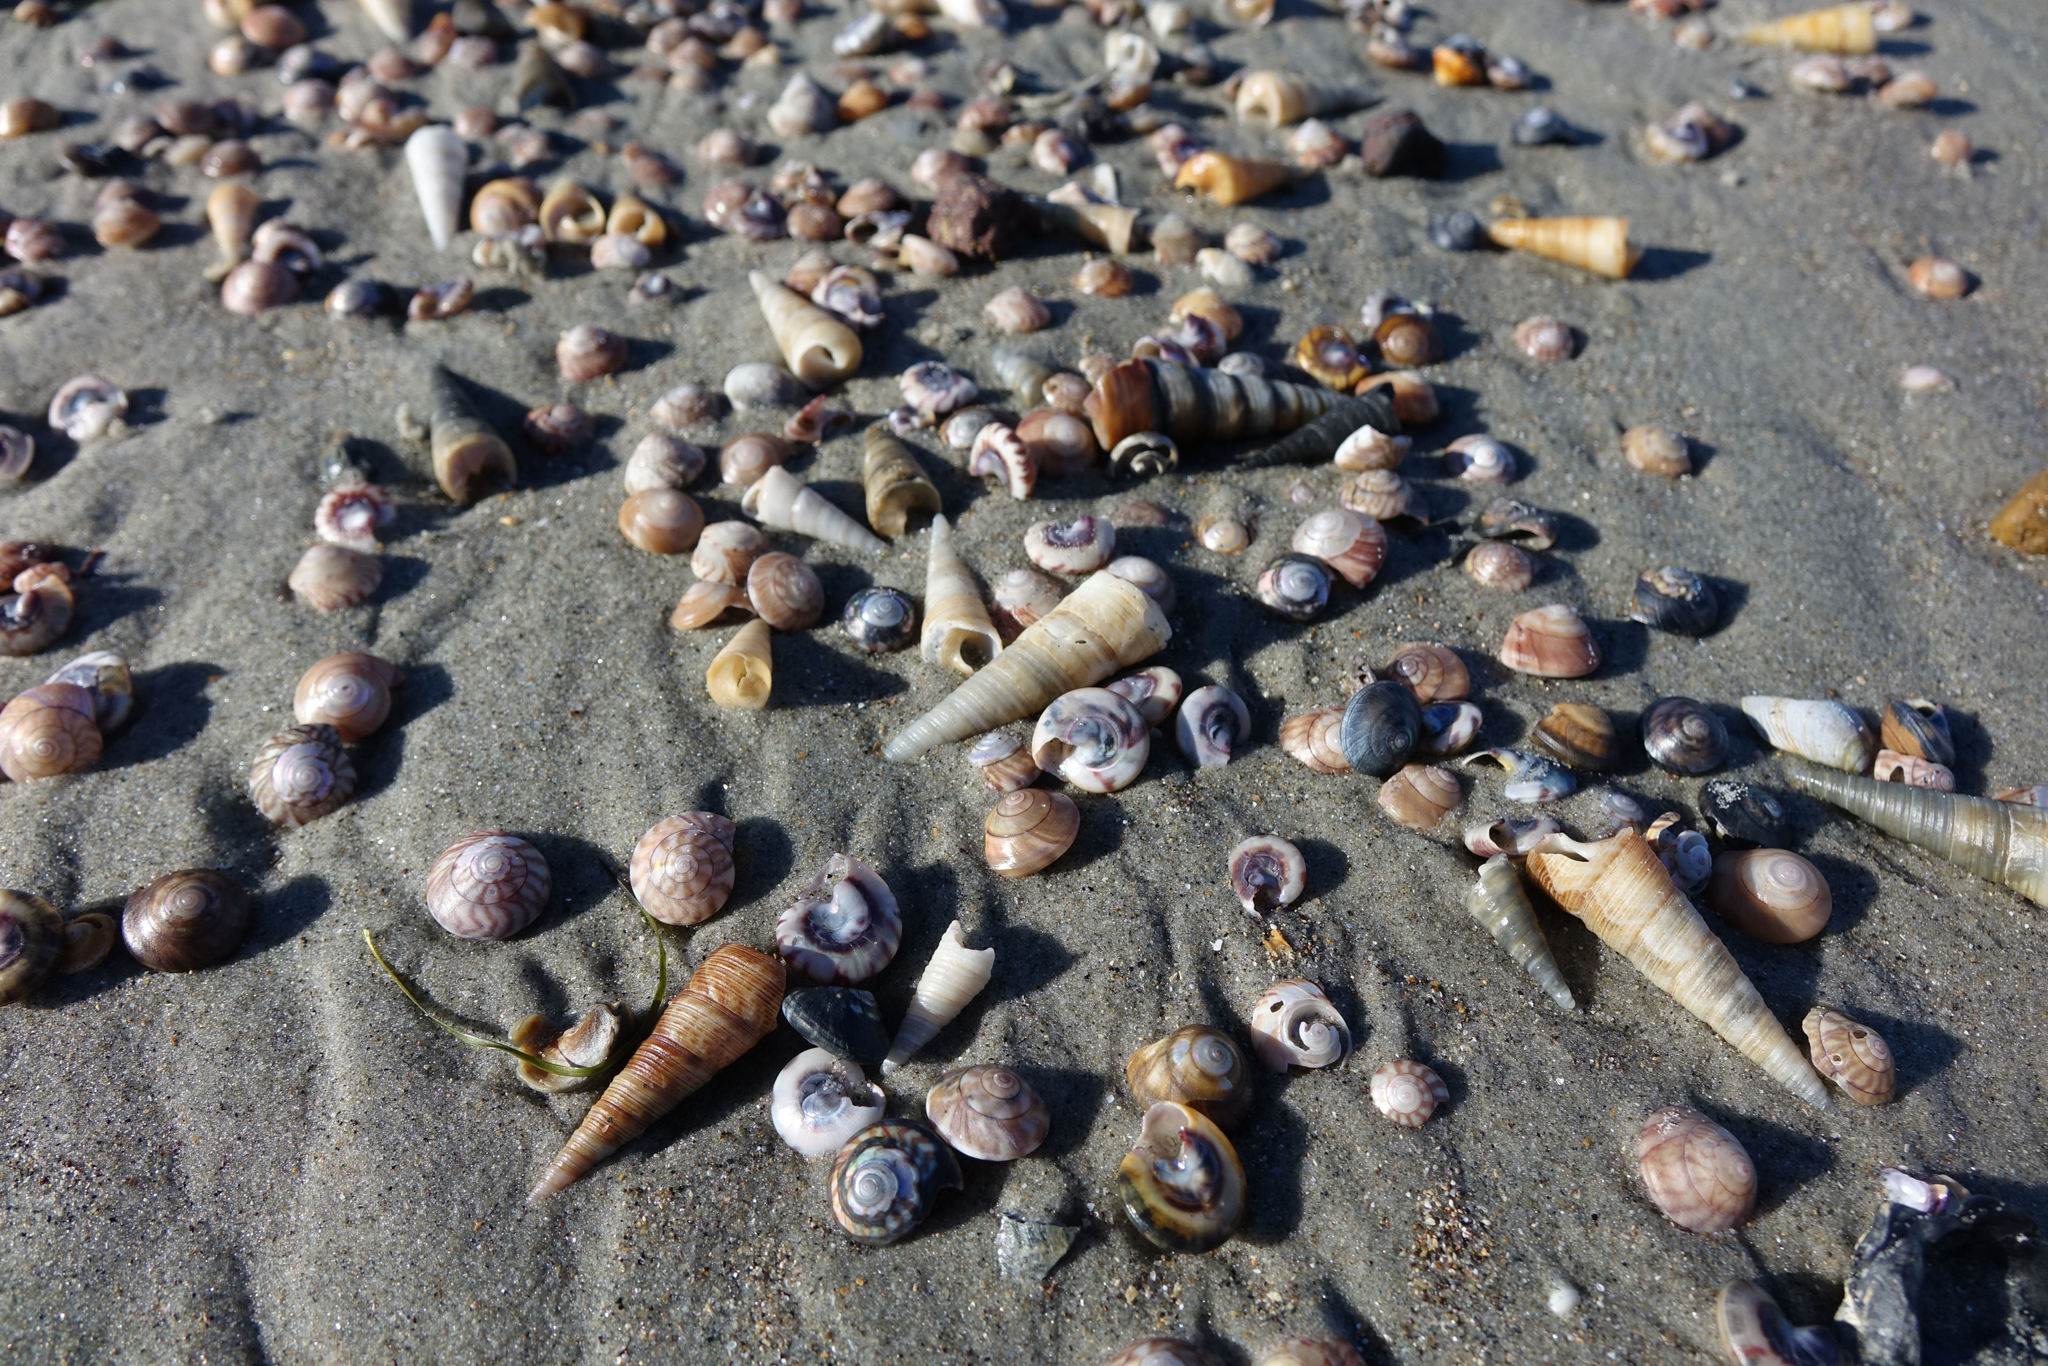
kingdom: Animalia
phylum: Mollusca
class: Gastropoda
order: Trochida
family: Trochidae
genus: Zethalia
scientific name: Zethalia zelandica
